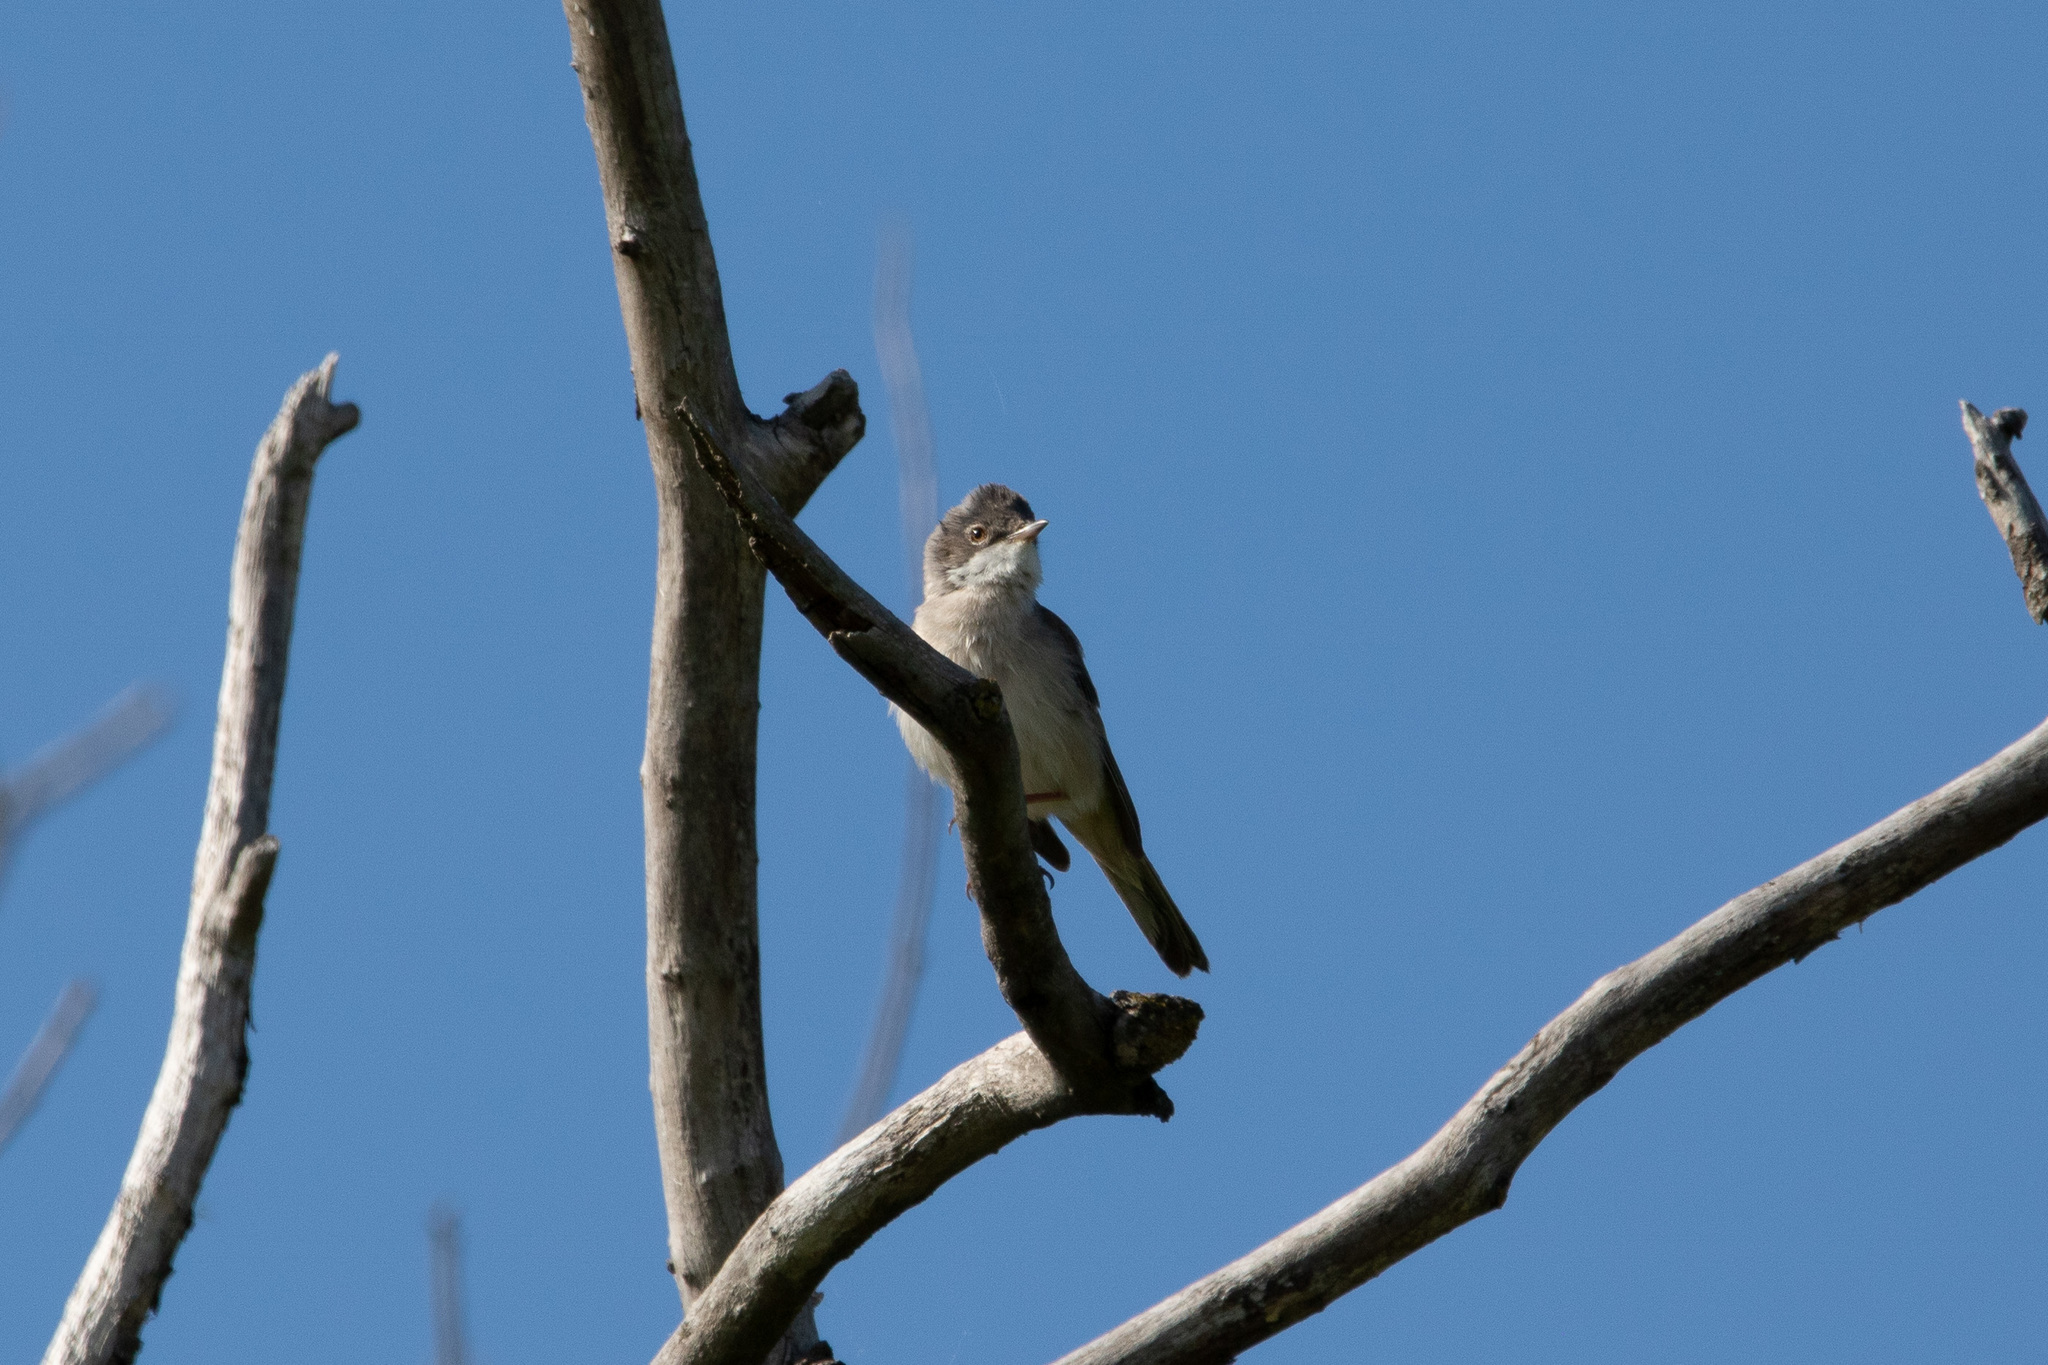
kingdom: Animalia
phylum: Chordata
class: Aves
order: Passeriformes
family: Sylviidae
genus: Sylvia
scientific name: Sylvia communis
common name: Common whitethroat
